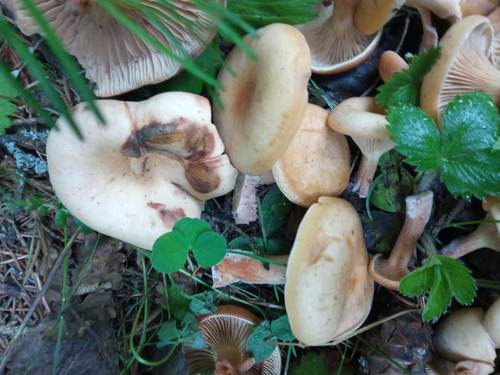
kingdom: Fungi
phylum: Basidiomycota
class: Agaricomycetes
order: Agaricales
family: Tricholomataceae
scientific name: Tricholomataceae
